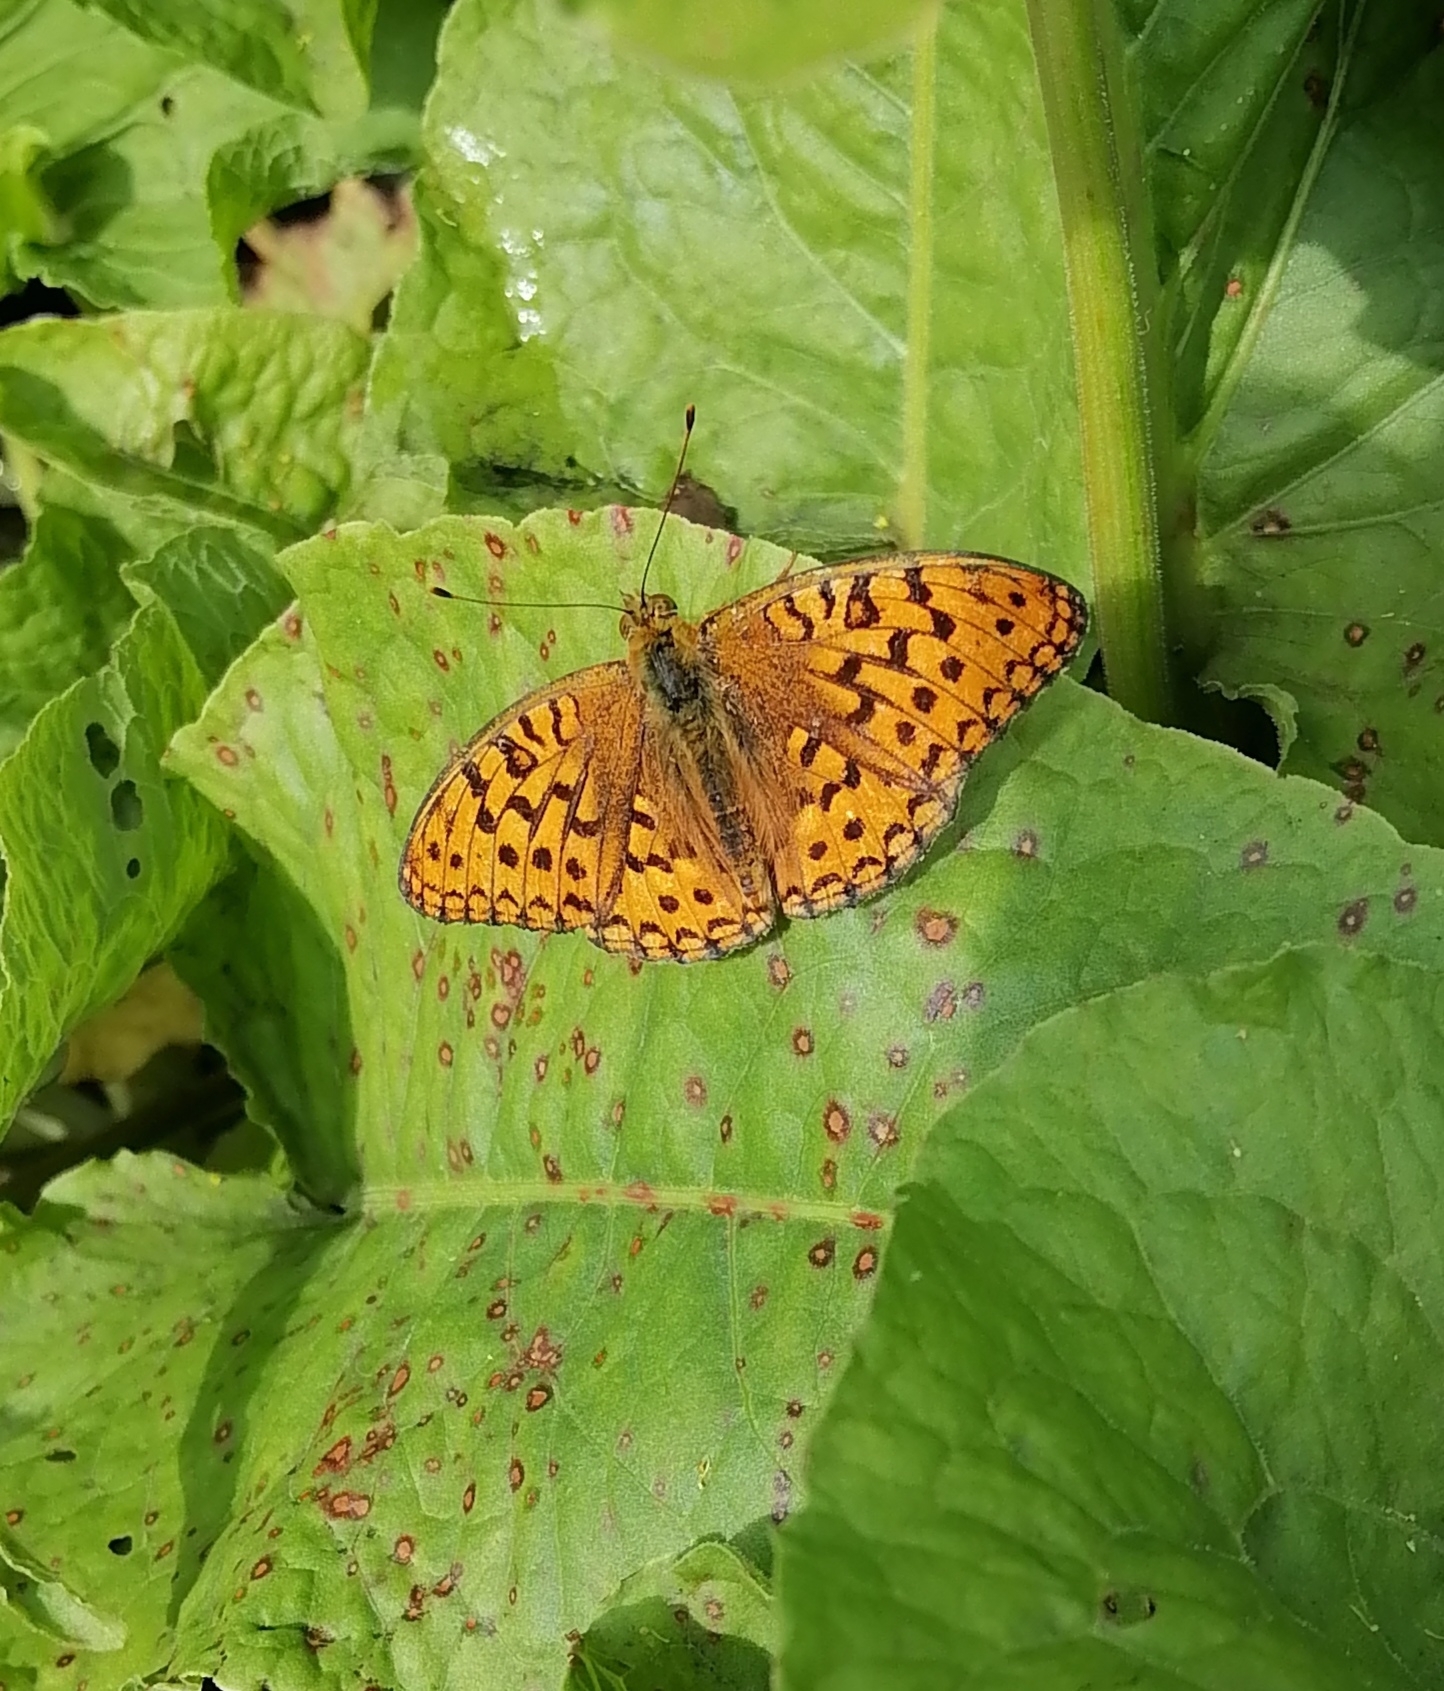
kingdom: Animalia
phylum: Arthropoda
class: Insecta
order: Lepidoptera
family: Nymphalidae
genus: Fabriciana
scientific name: Fabriciana adippe
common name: High brown fritillary
